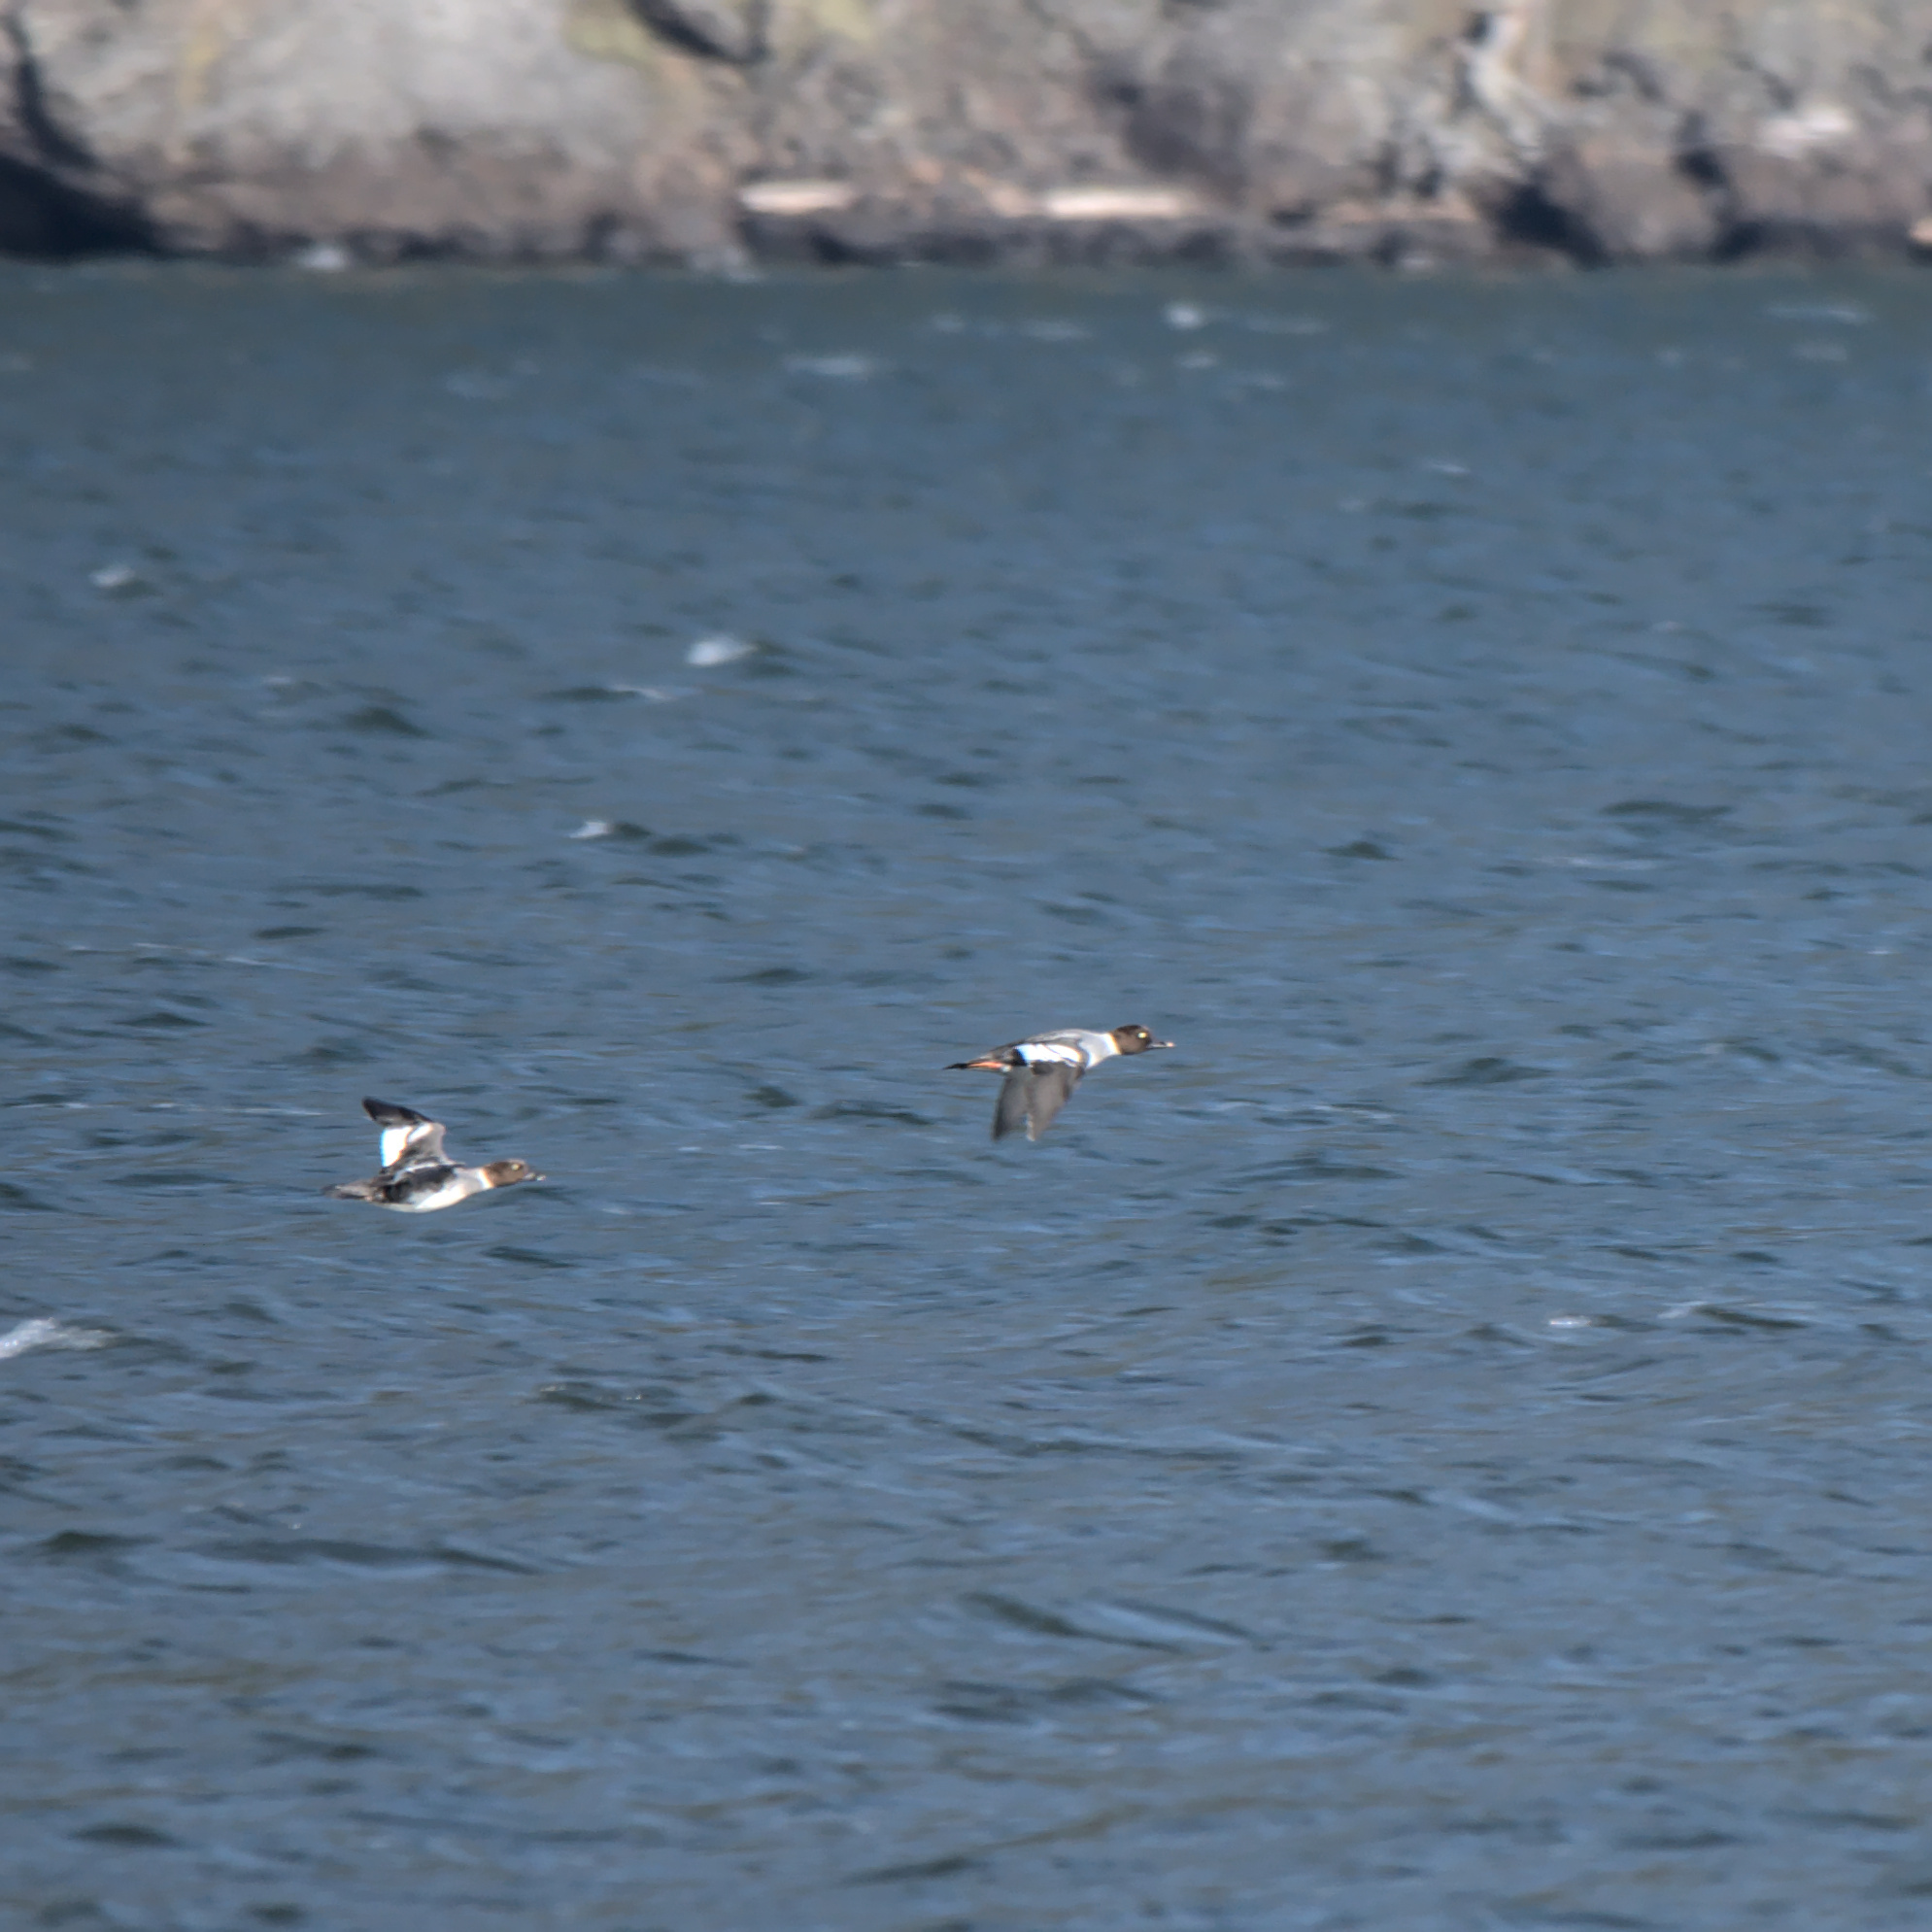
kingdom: Animalia
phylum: Chordata
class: Aves
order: Anseriformes
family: Anatidae
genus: Bucephala
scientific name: Bucephala clangula
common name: Common goldeneye
